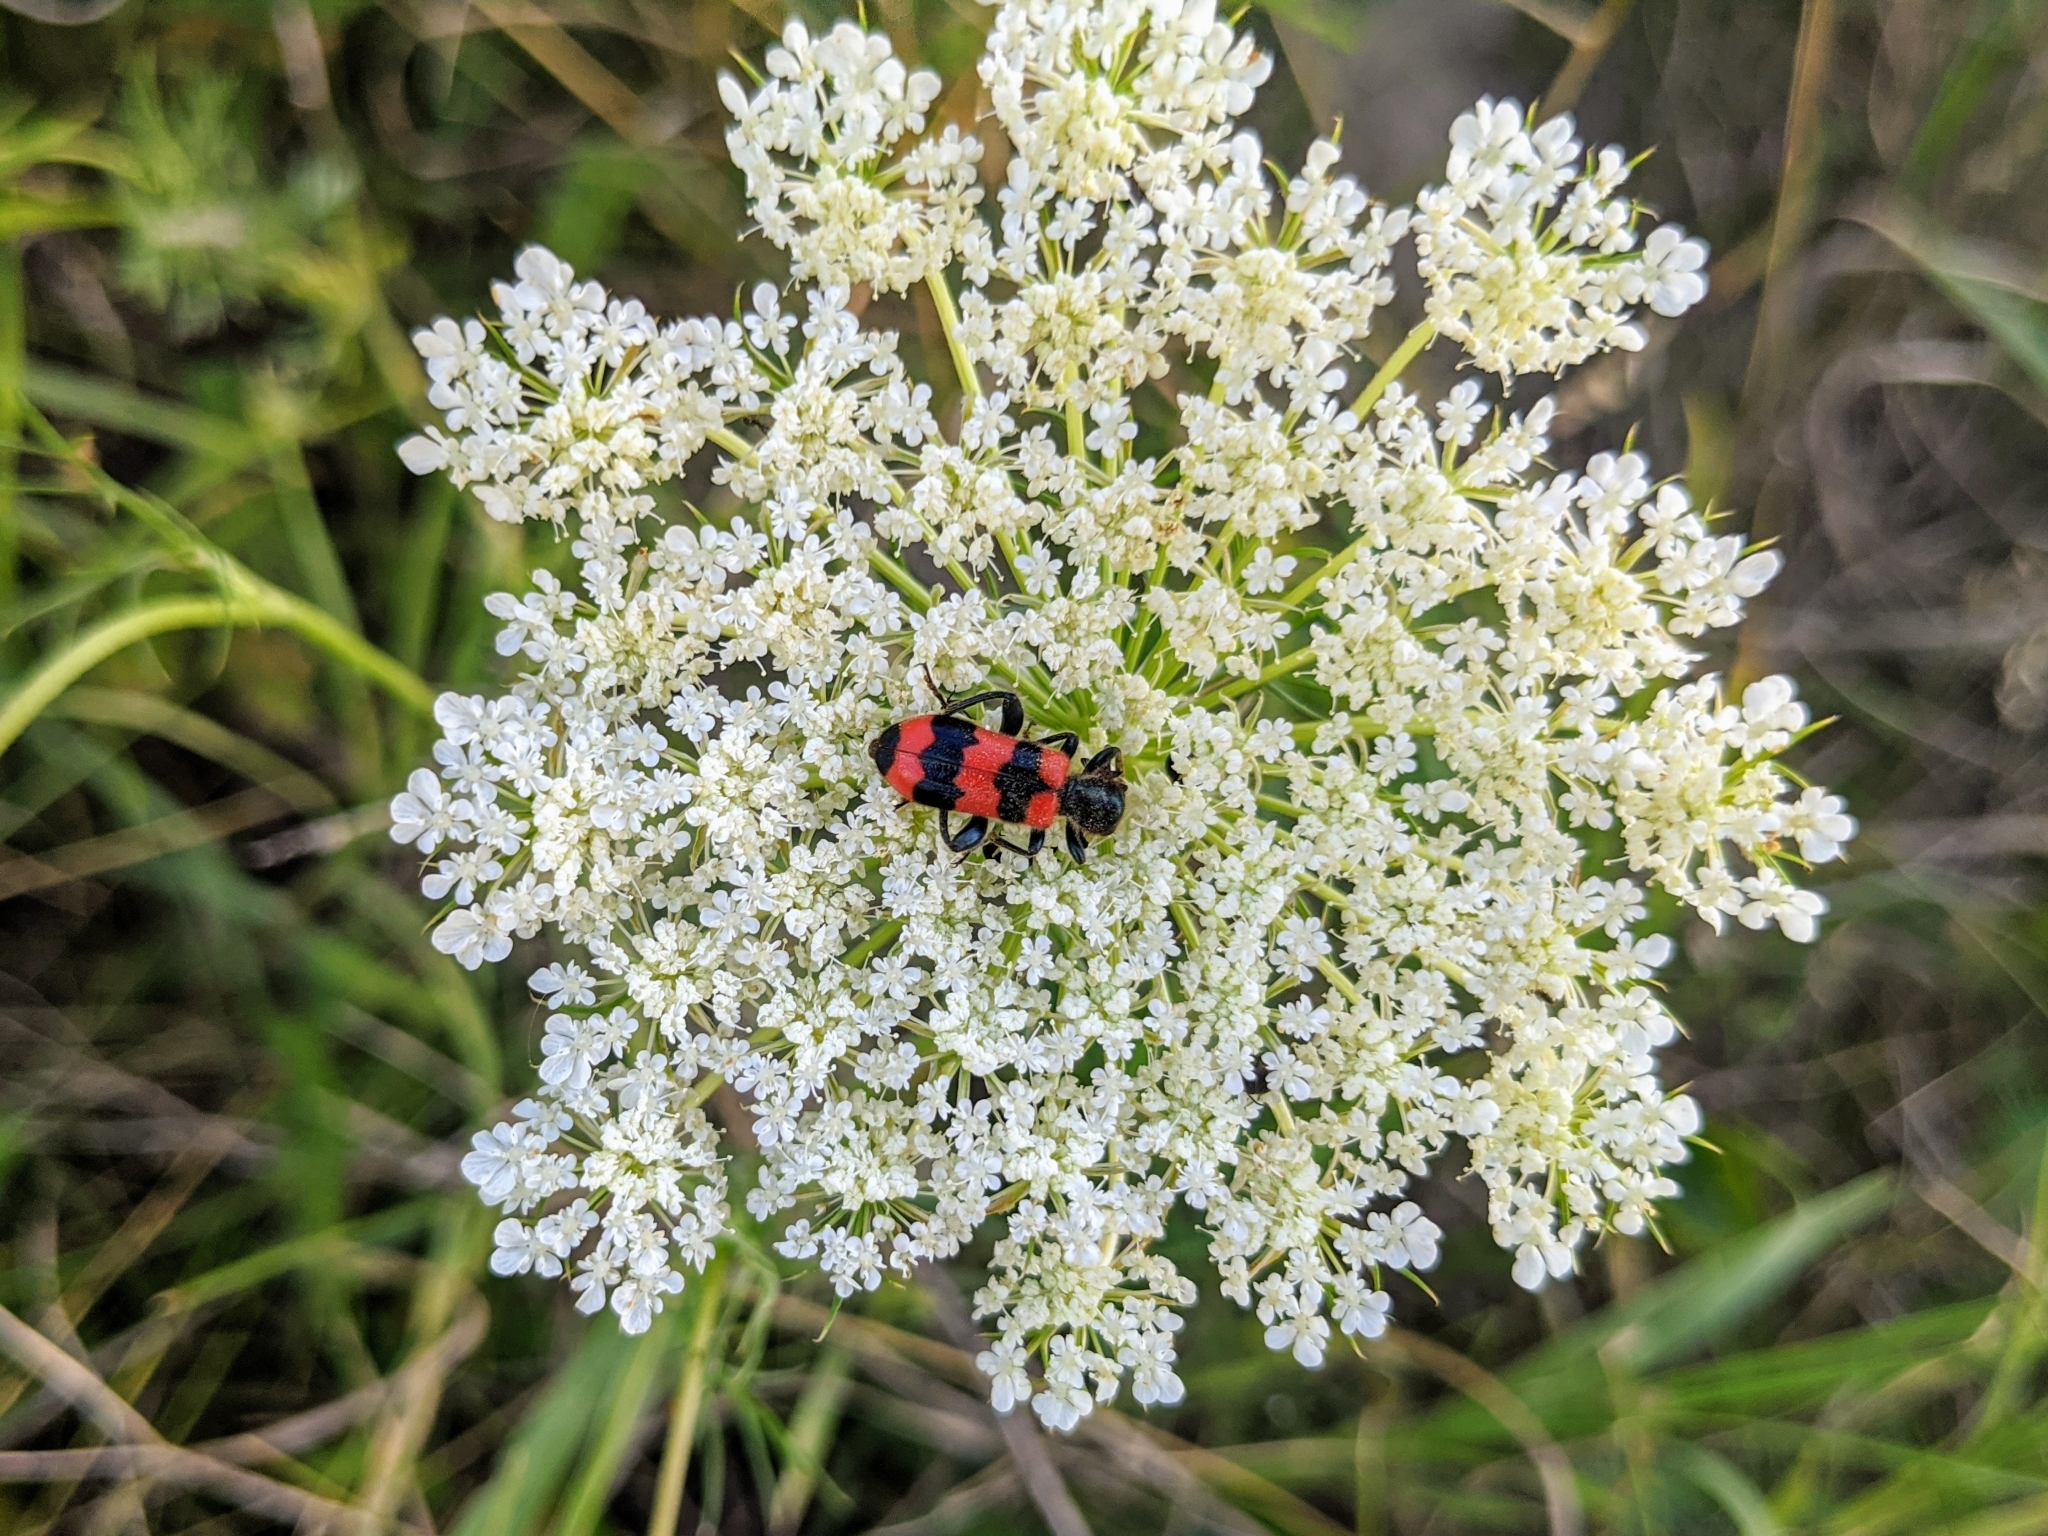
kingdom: Animalia
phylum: Arthropoda
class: Insecta
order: Coleoptera
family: Cleridae
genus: Trichodes
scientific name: Trichodes apiarius
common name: Bee-eating beetle
